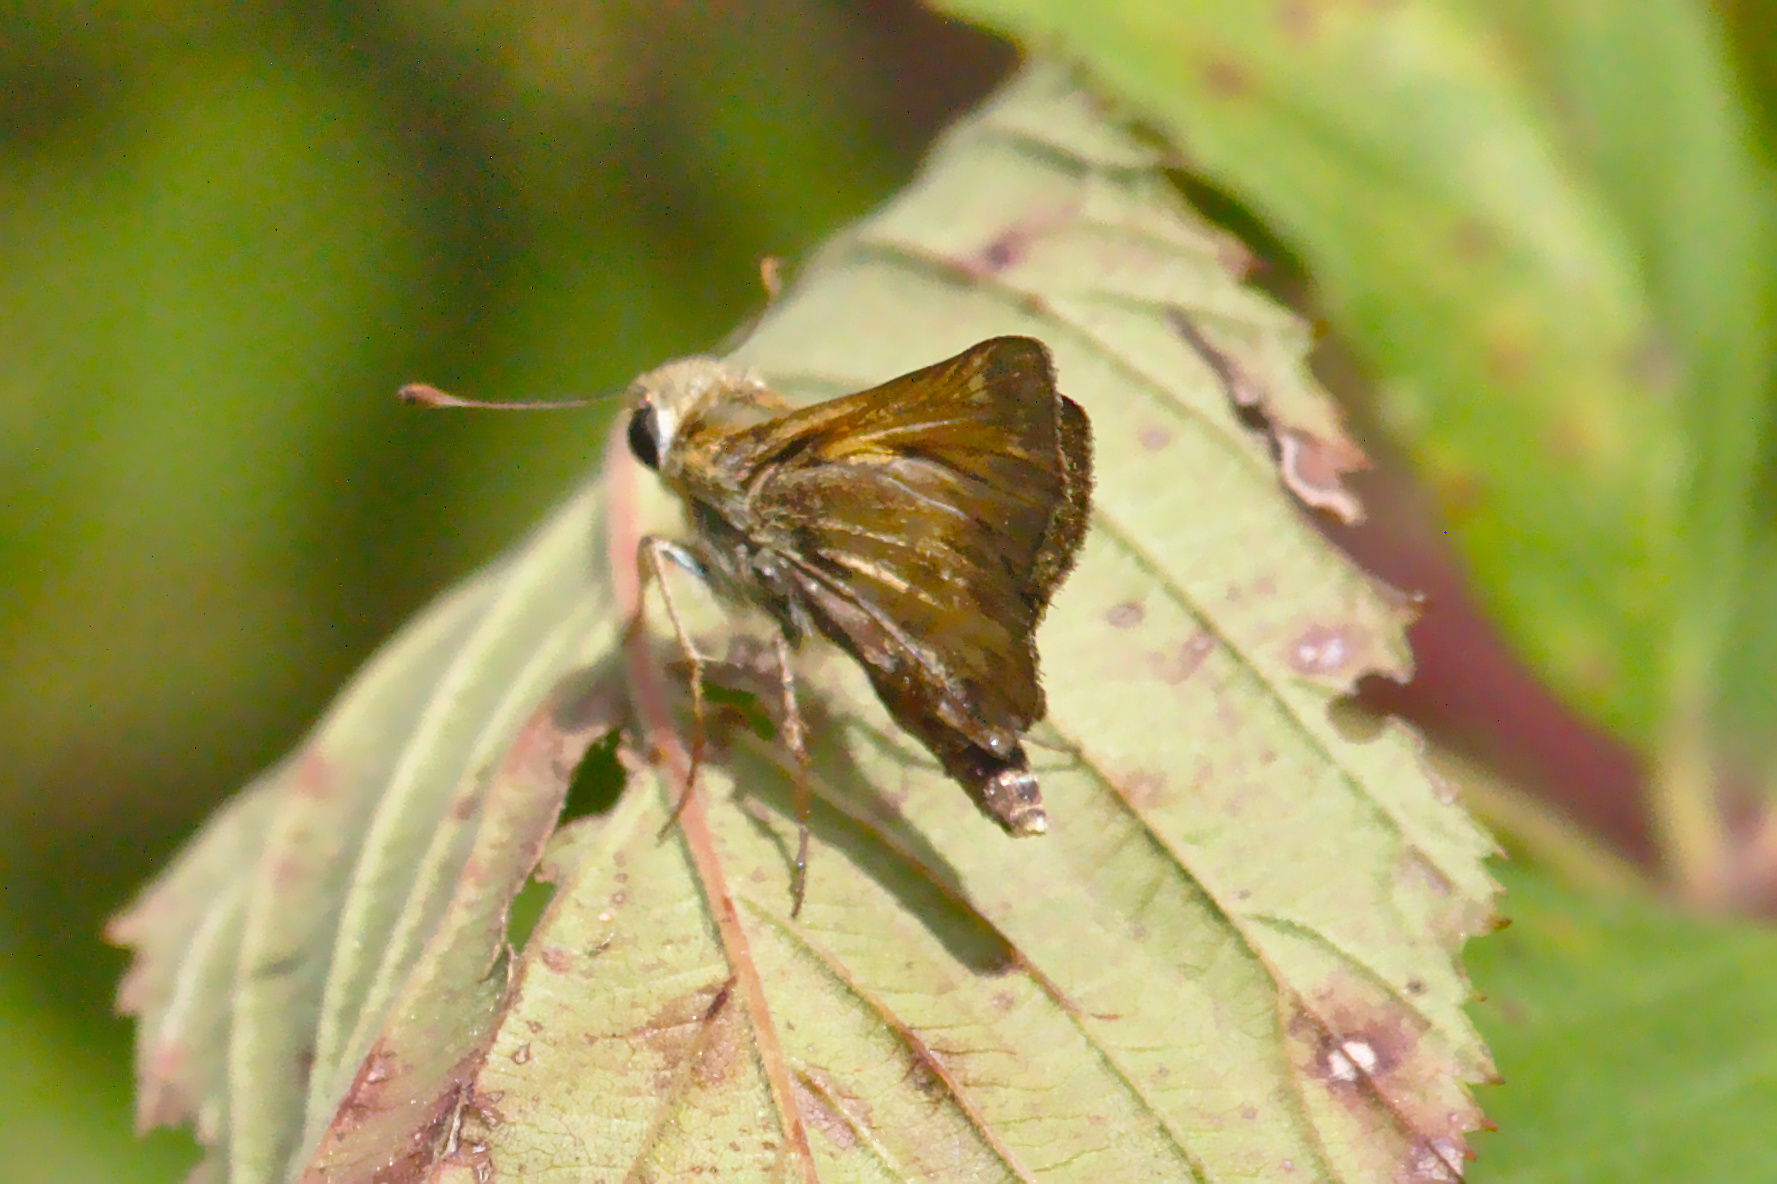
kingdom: Animalia
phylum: Arthropoda
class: Insecta
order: Lepidoptera
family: Hesperiidae
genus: Atalopedes
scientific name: Atalopedes
